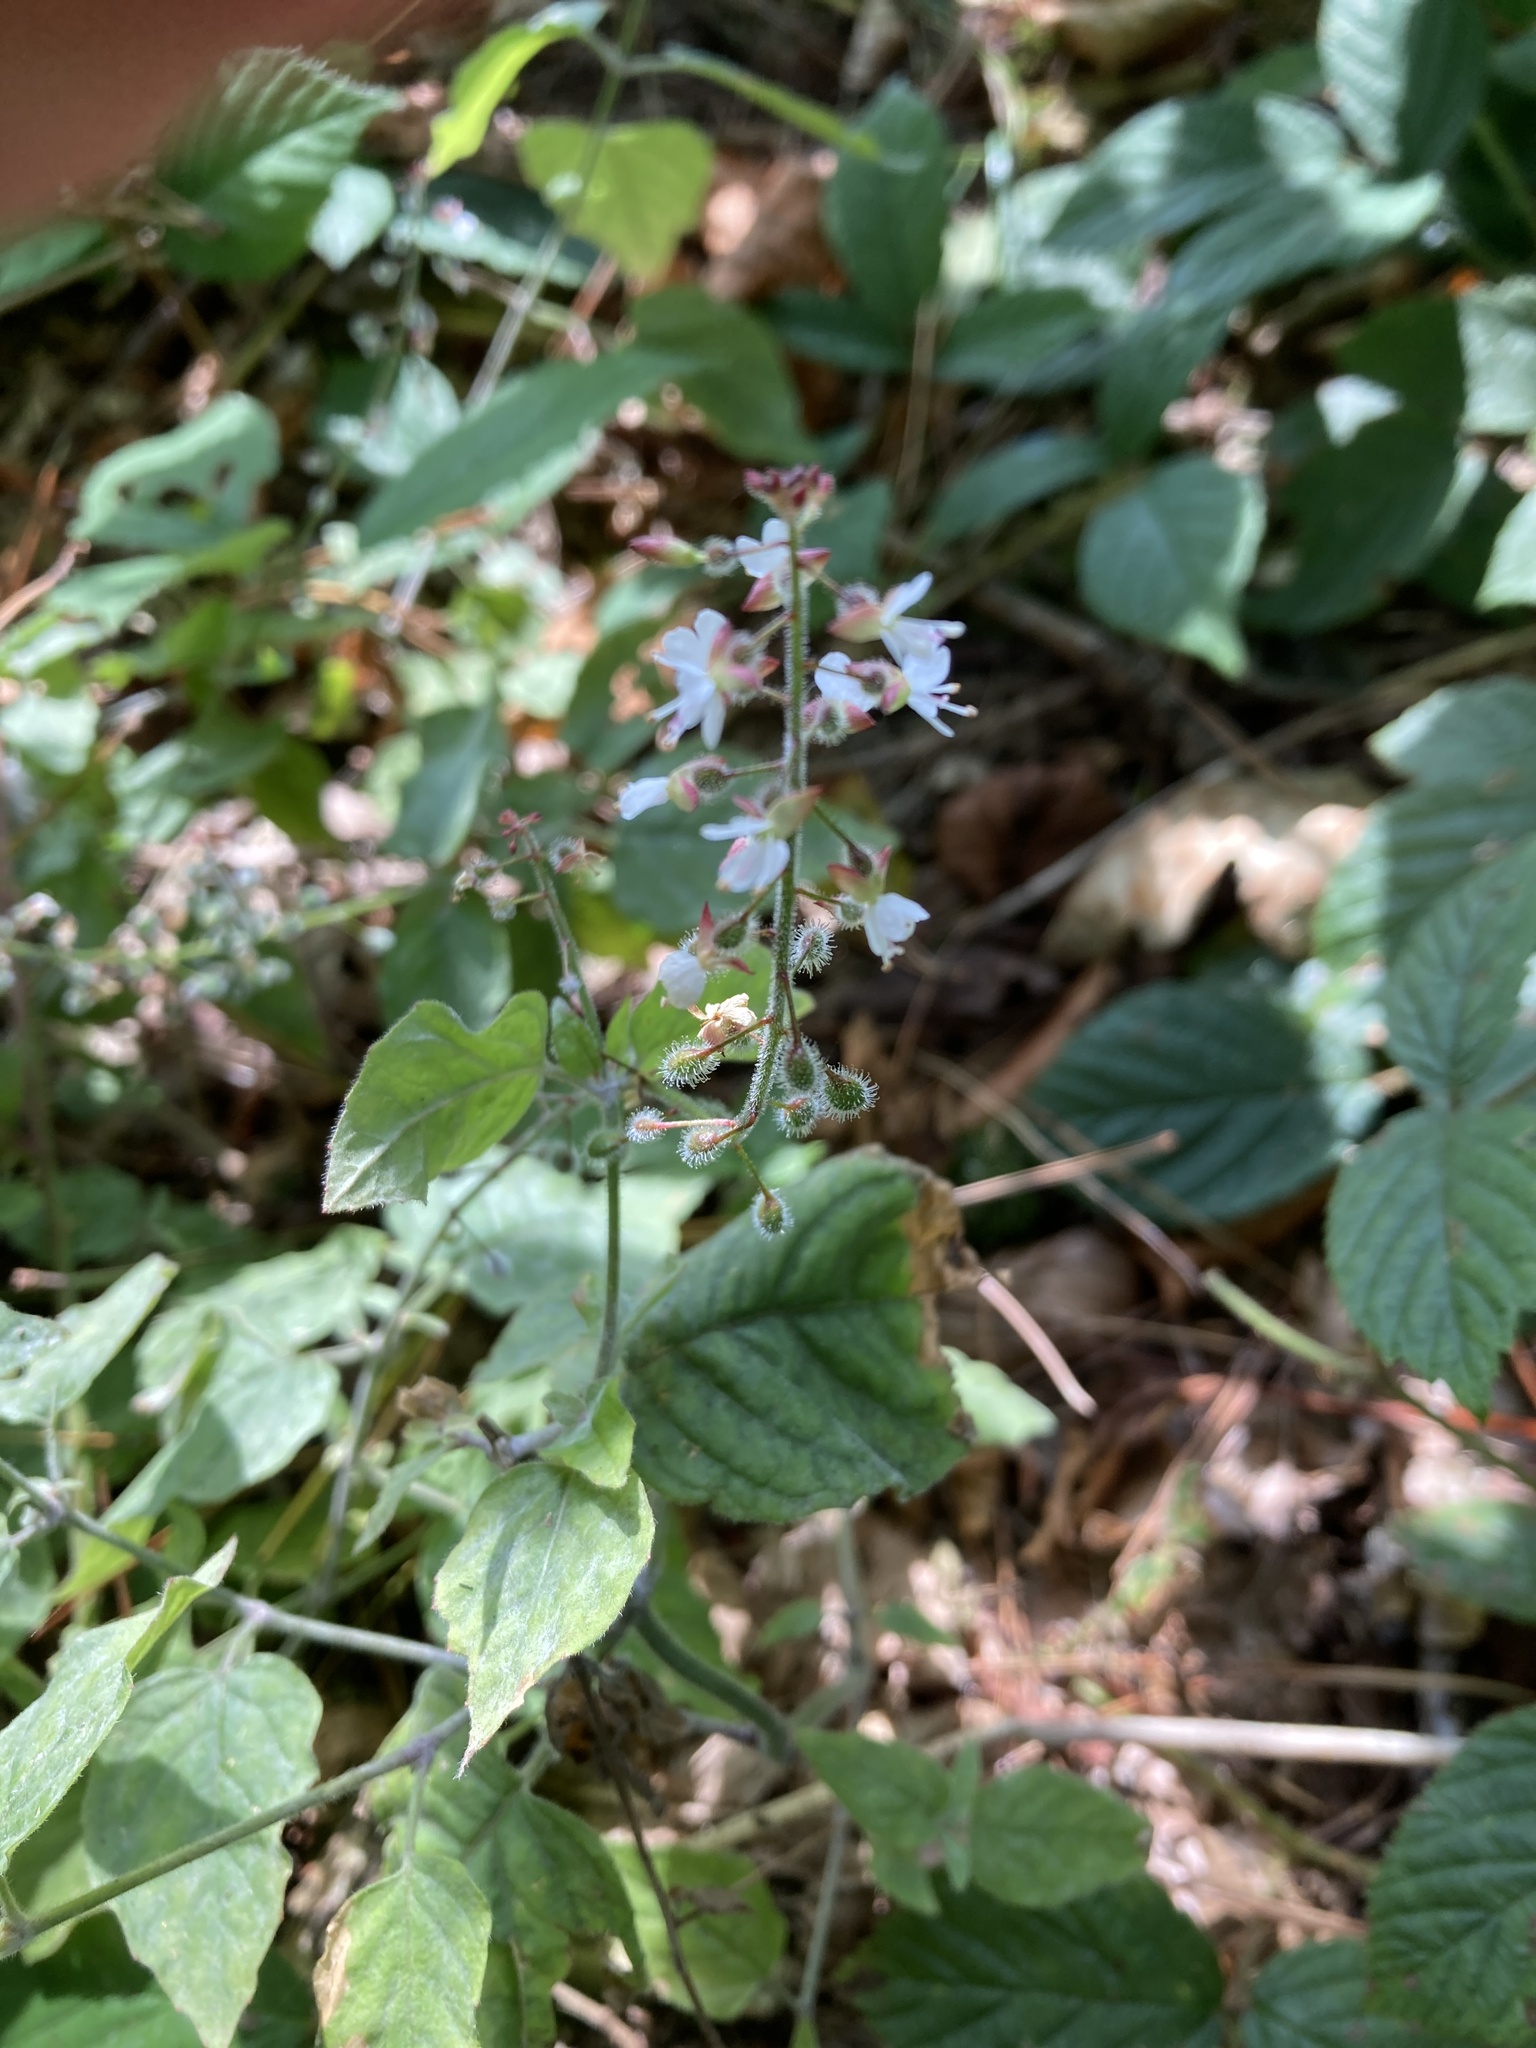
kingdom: Plantae
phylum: Tracheophyta
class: Magnoliopsida
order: Myrtales
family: Onagraceae
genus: Circaea
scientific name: Circaea lutetiana
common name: Enchanter's-nightshade
